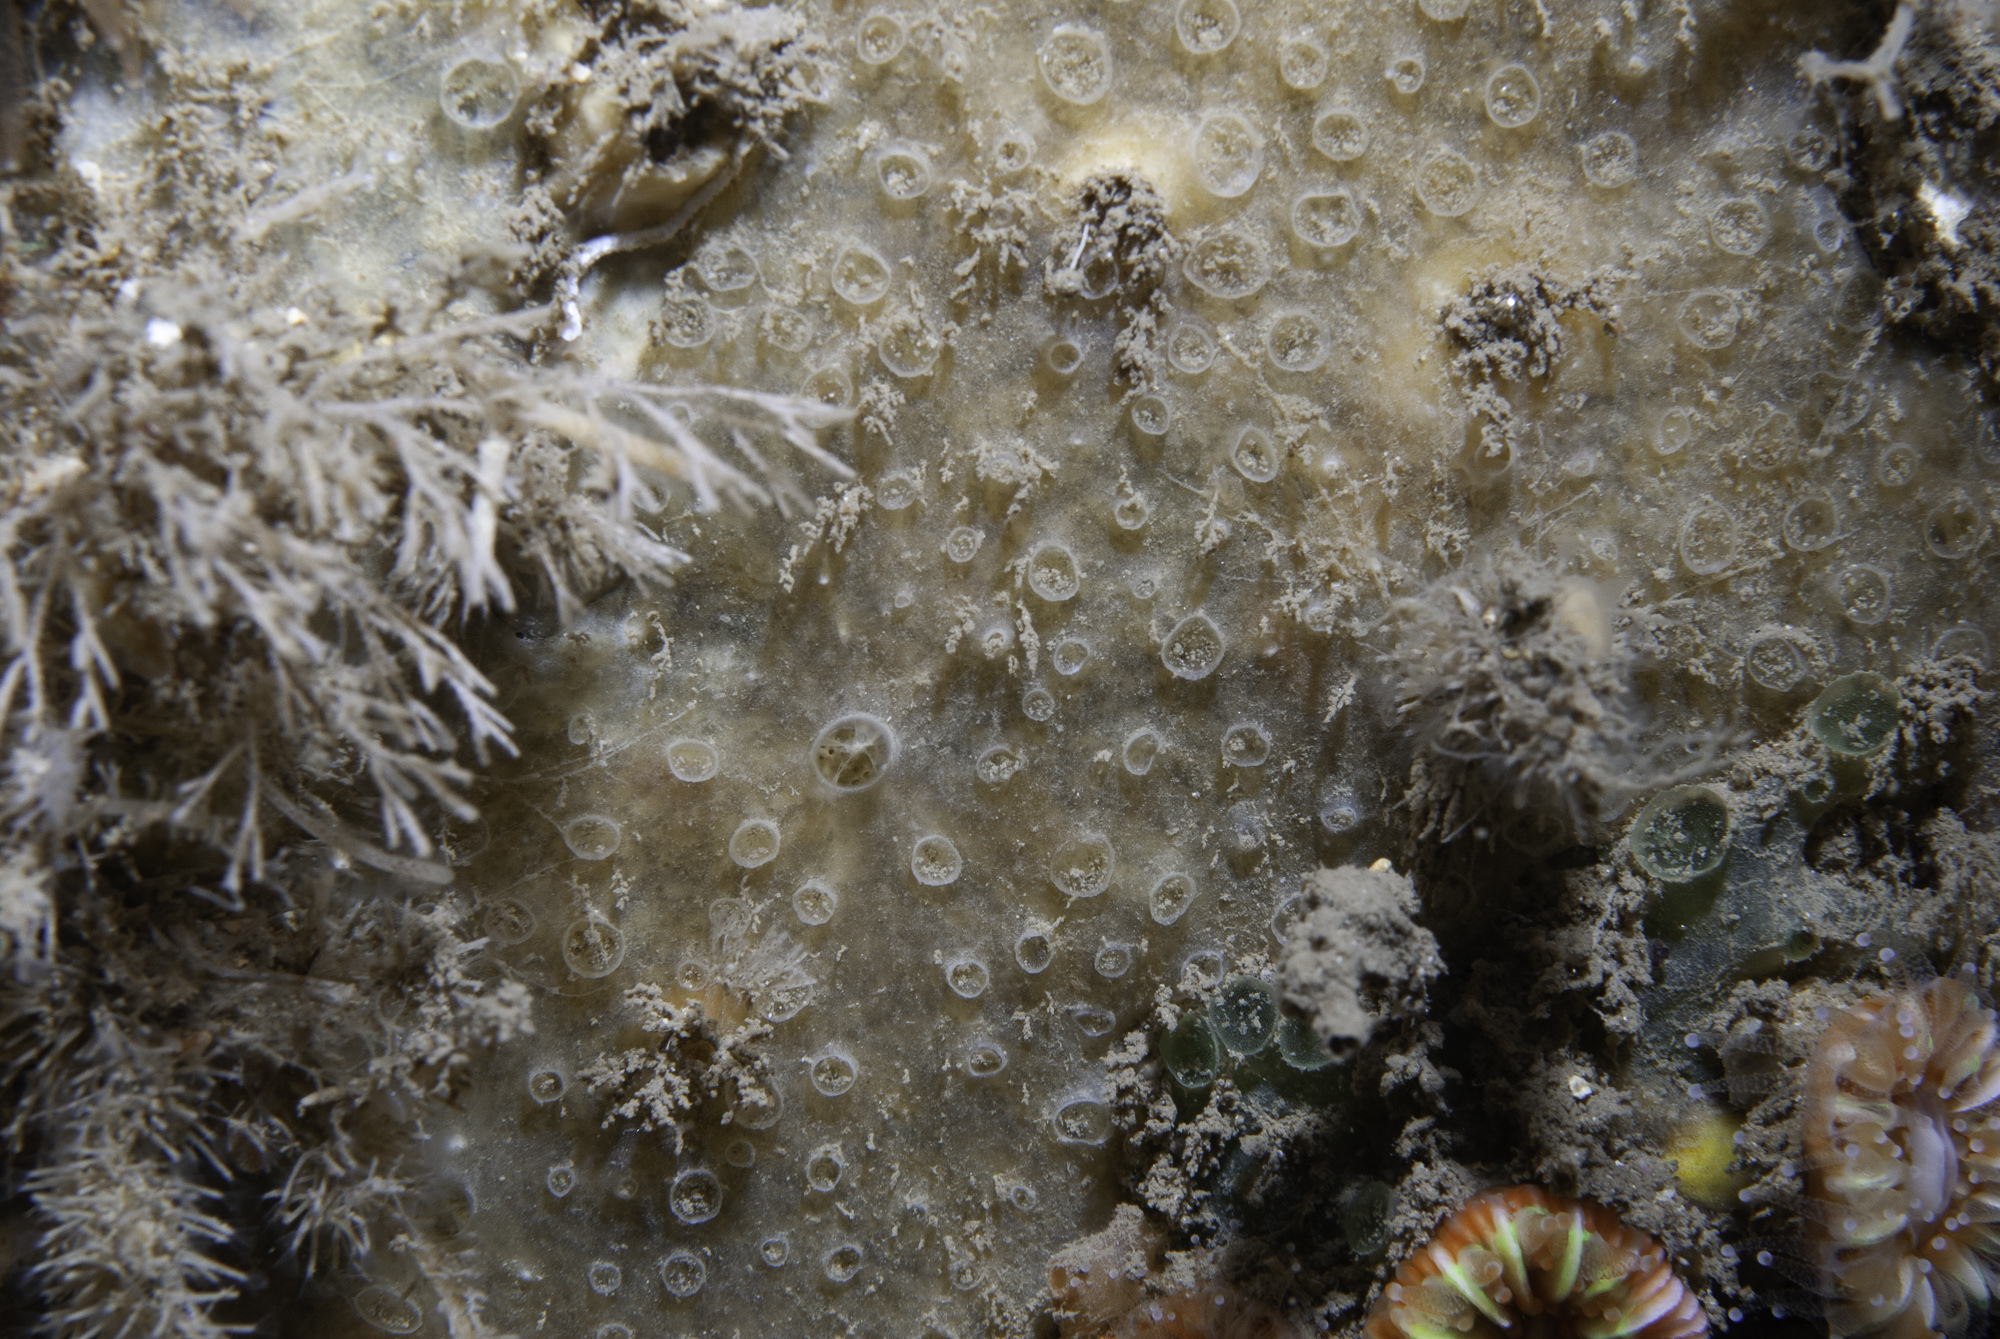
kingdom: Animalia
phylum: Porifera
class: Demospongiae
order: Poecilosclerida
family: Hymedesmiidae
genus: Hymedesmia
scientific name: Hymedesmia primitiva
